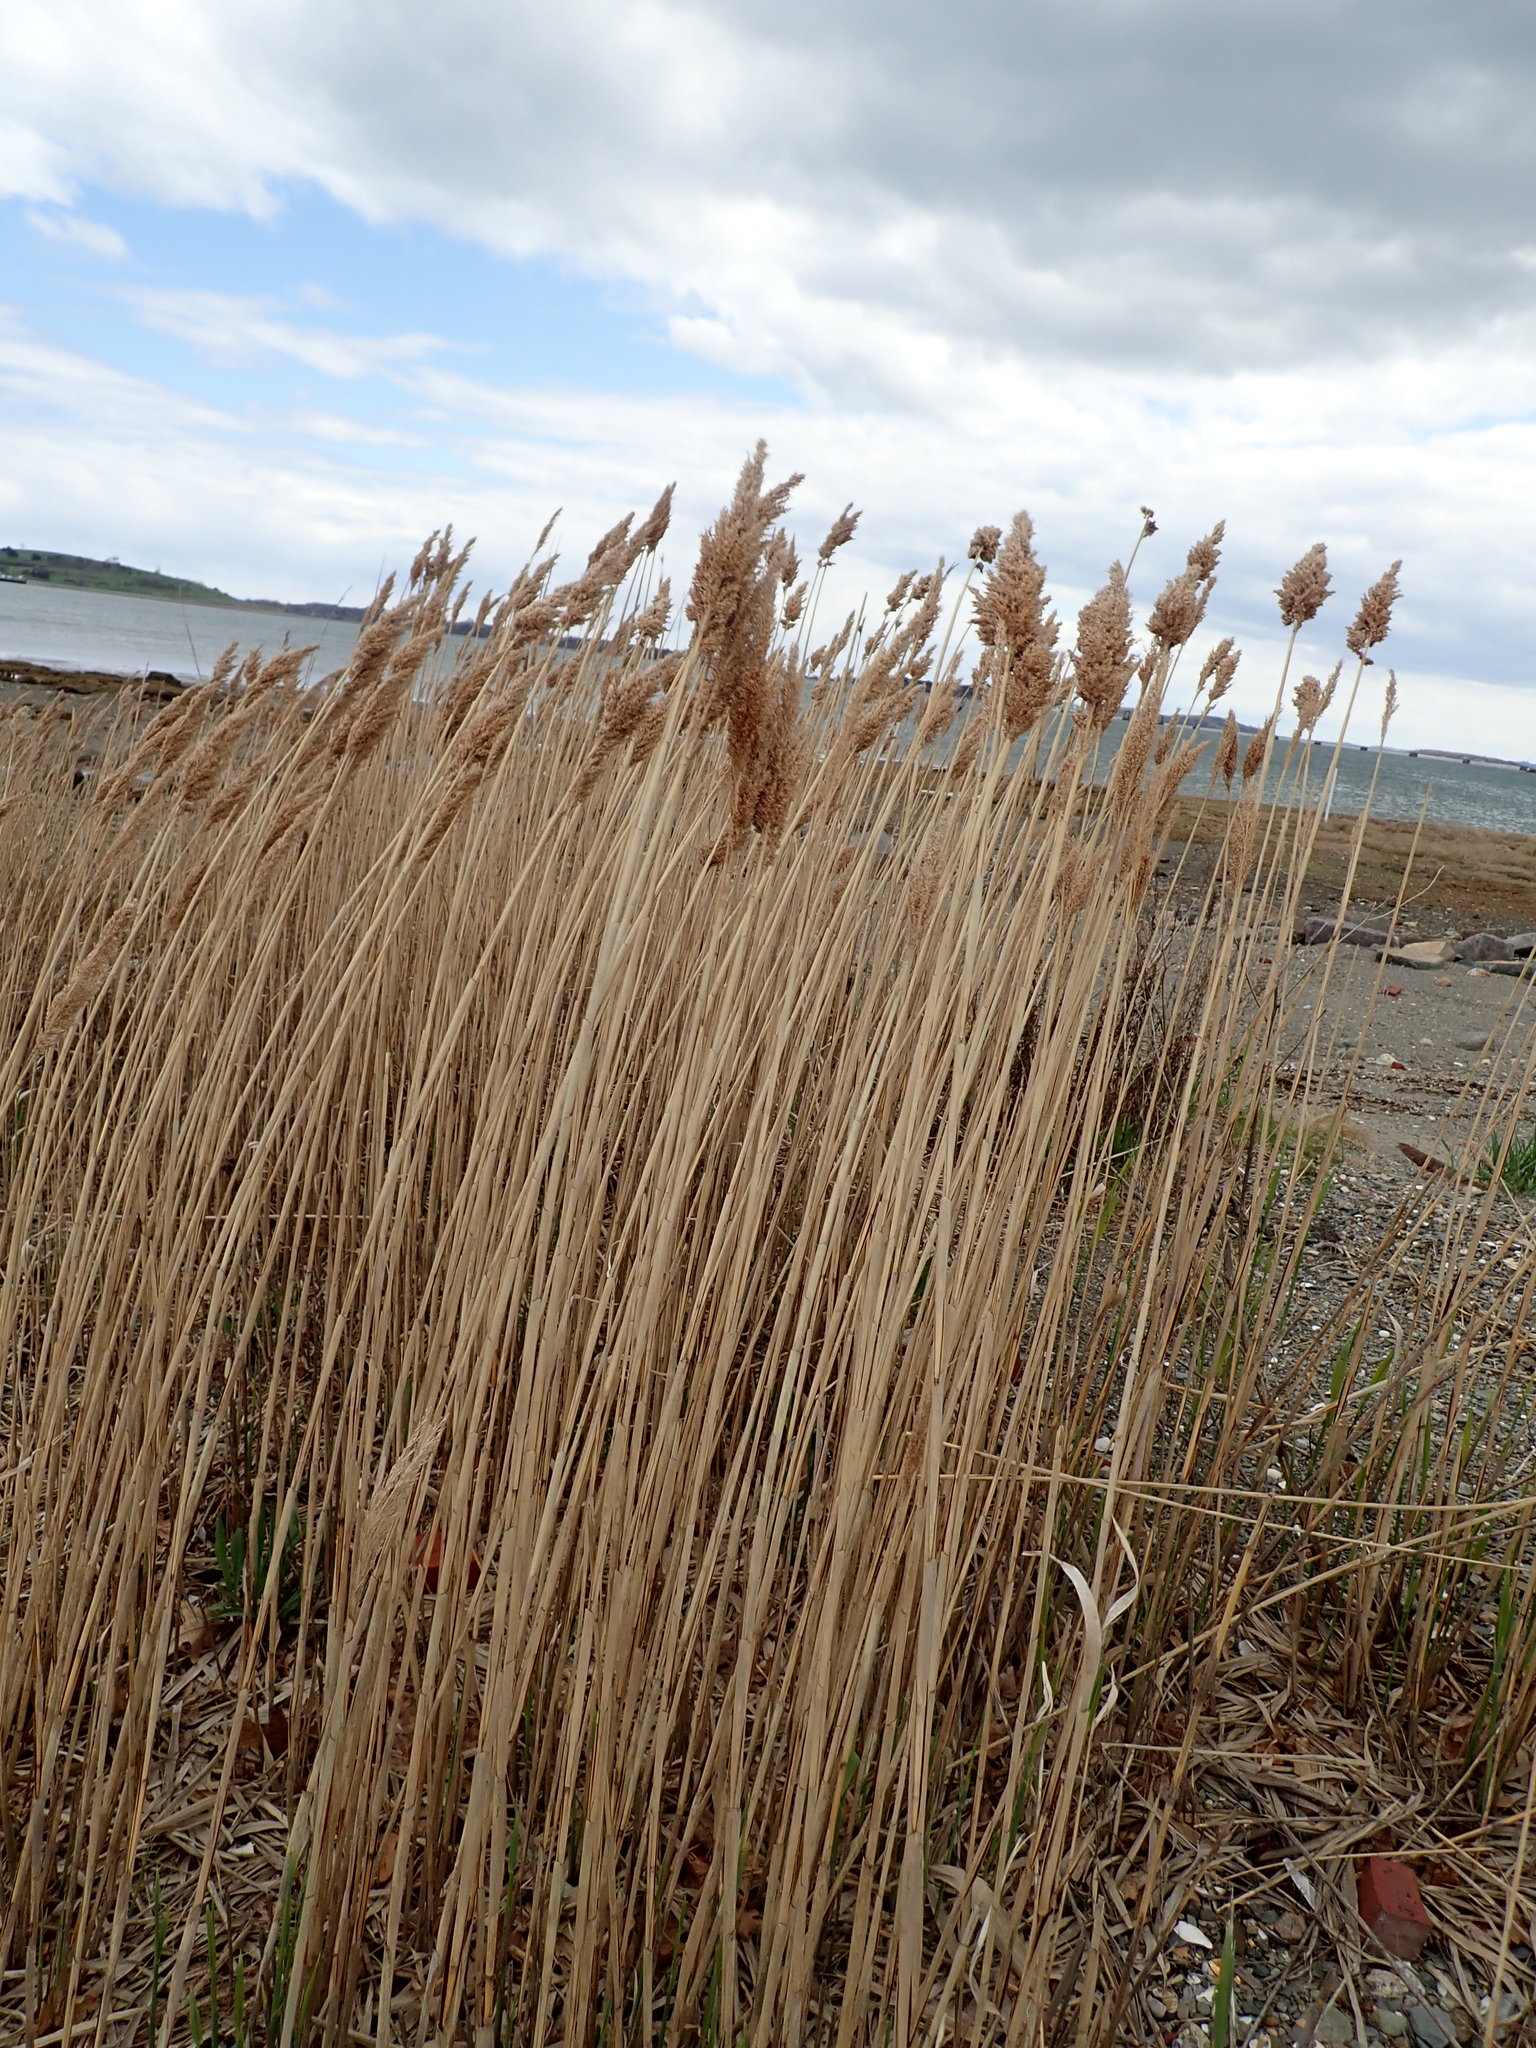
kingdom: Plantae
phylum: Tracheophyta
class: Liliopsida
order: Poales
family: Poaceae
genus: Phragmites
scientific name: Phragmites australis
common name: Common reed
